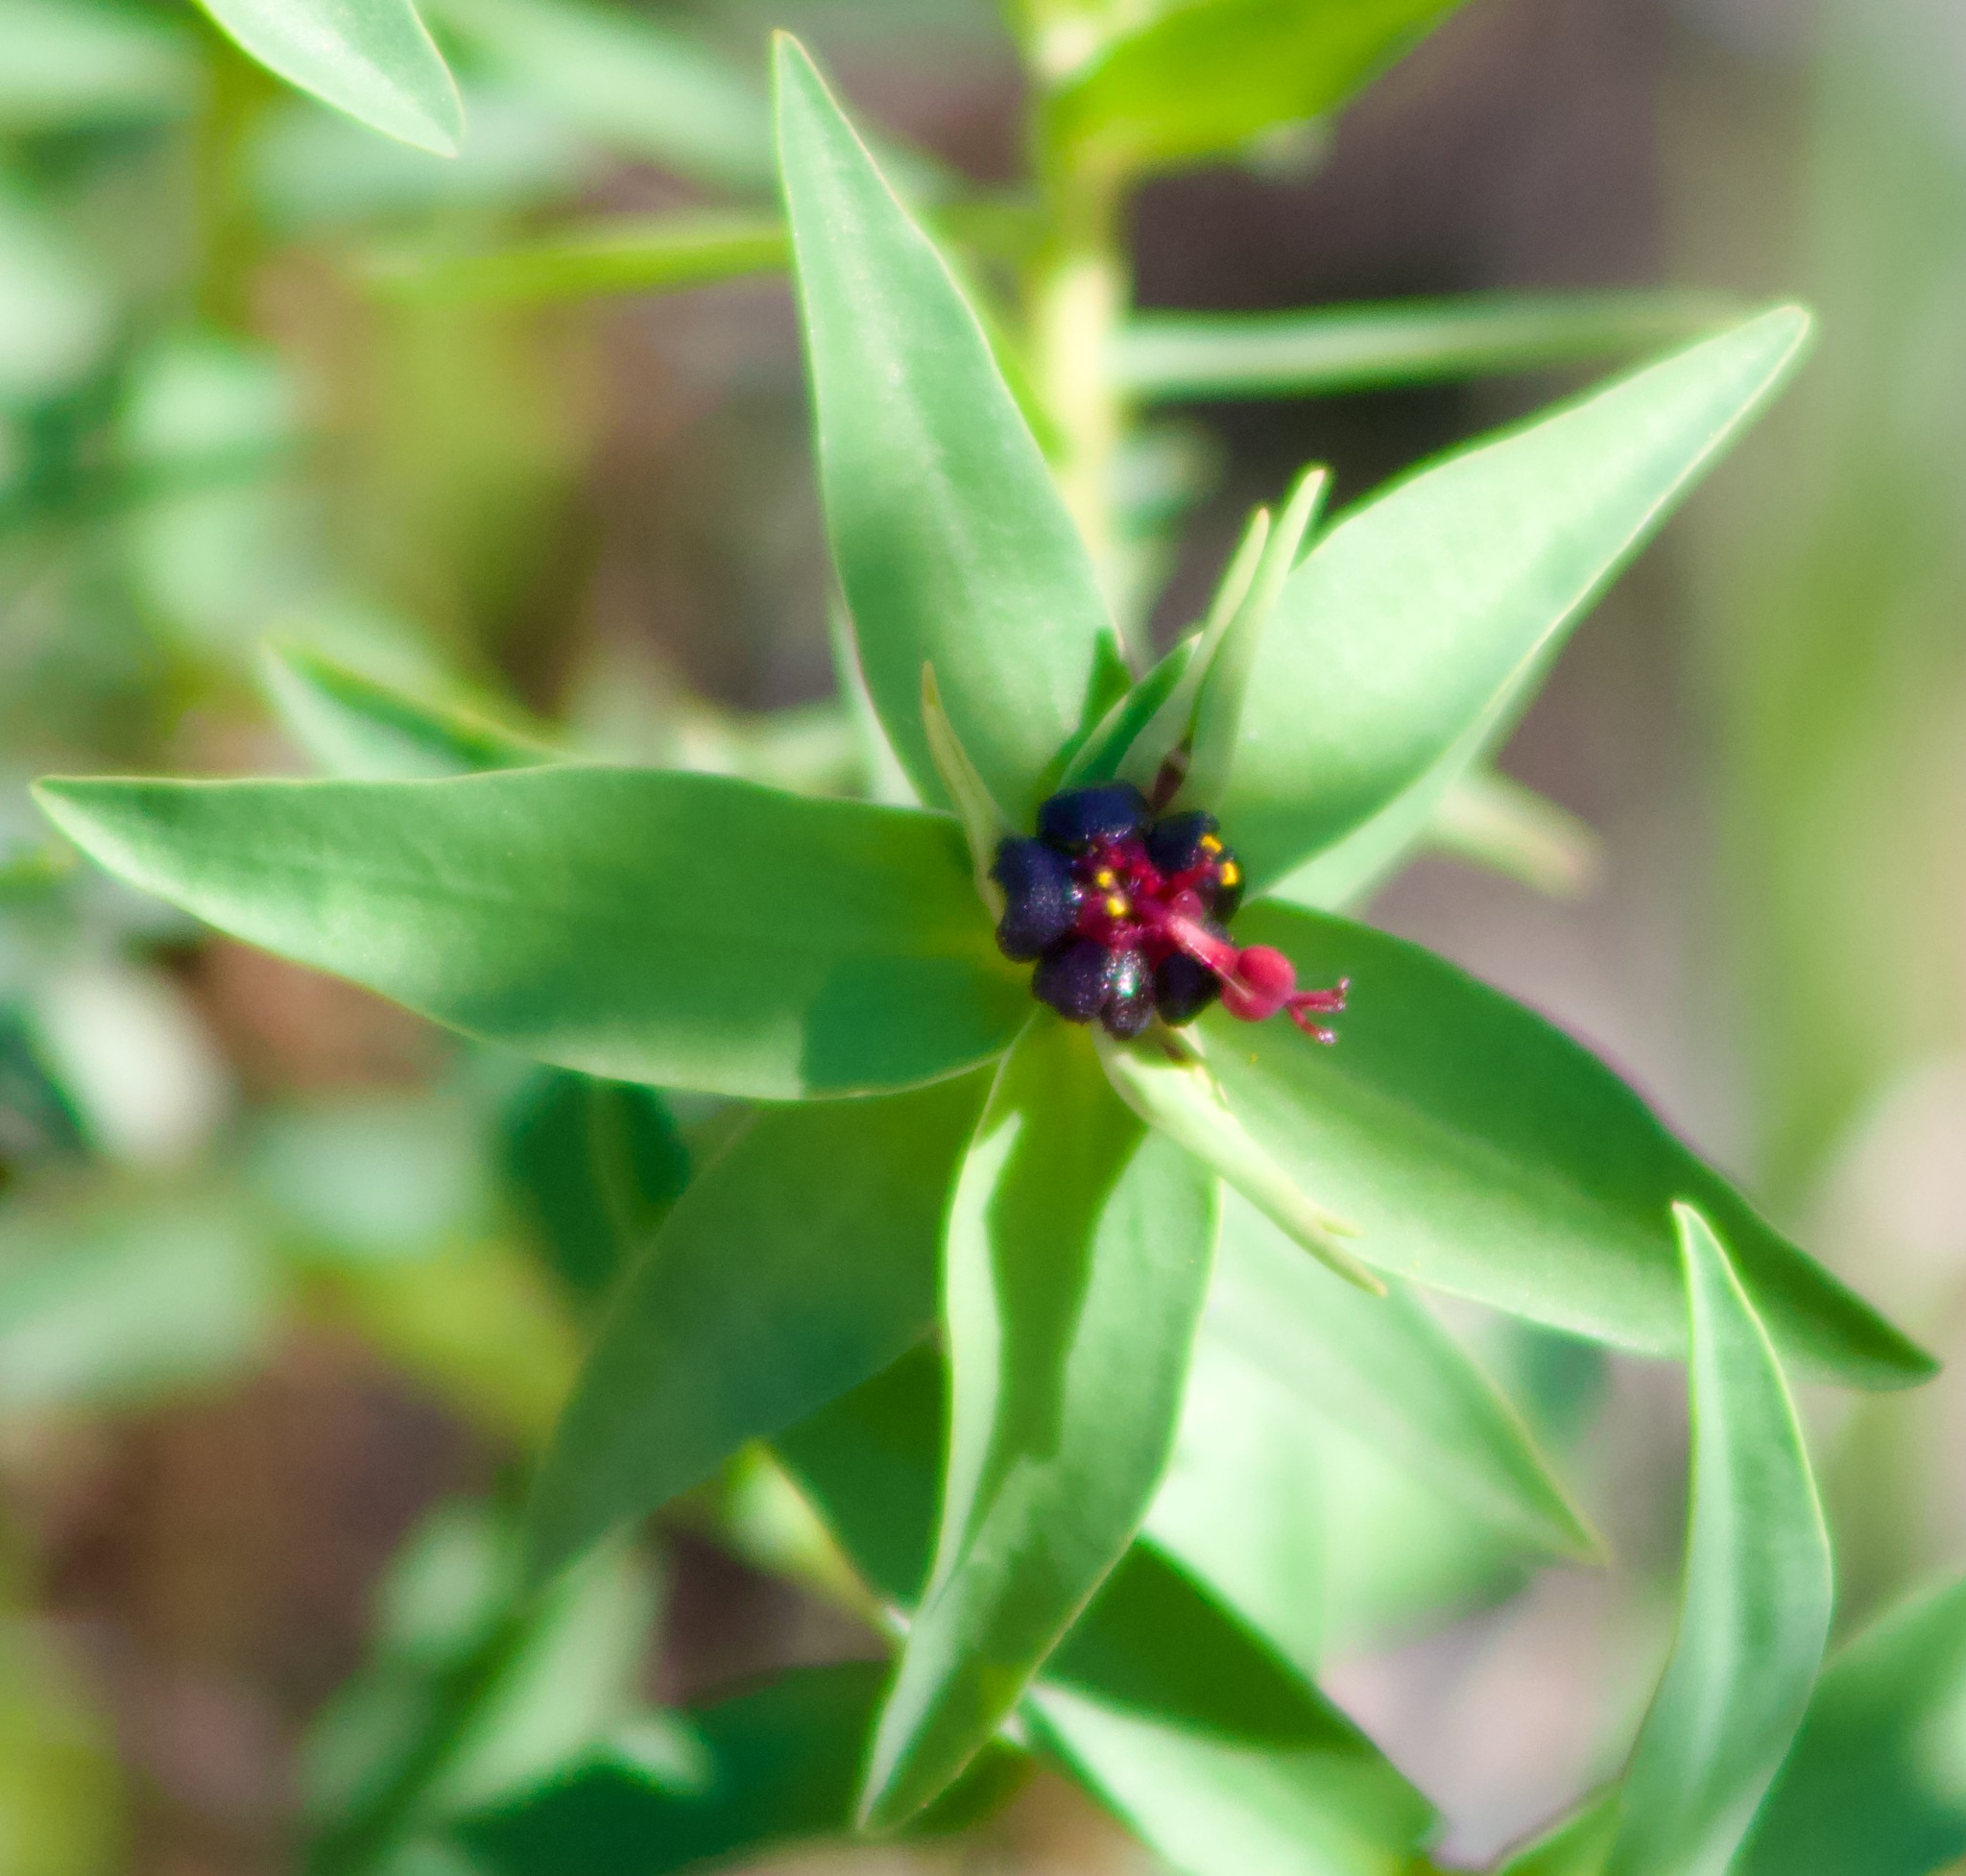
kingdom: Plantae
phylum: Tracheophyta
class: Magnoliopsida
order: Malpighiales
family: Euphorbiaceae
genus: Euphorbia
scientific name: Euphorbia portulacoides
